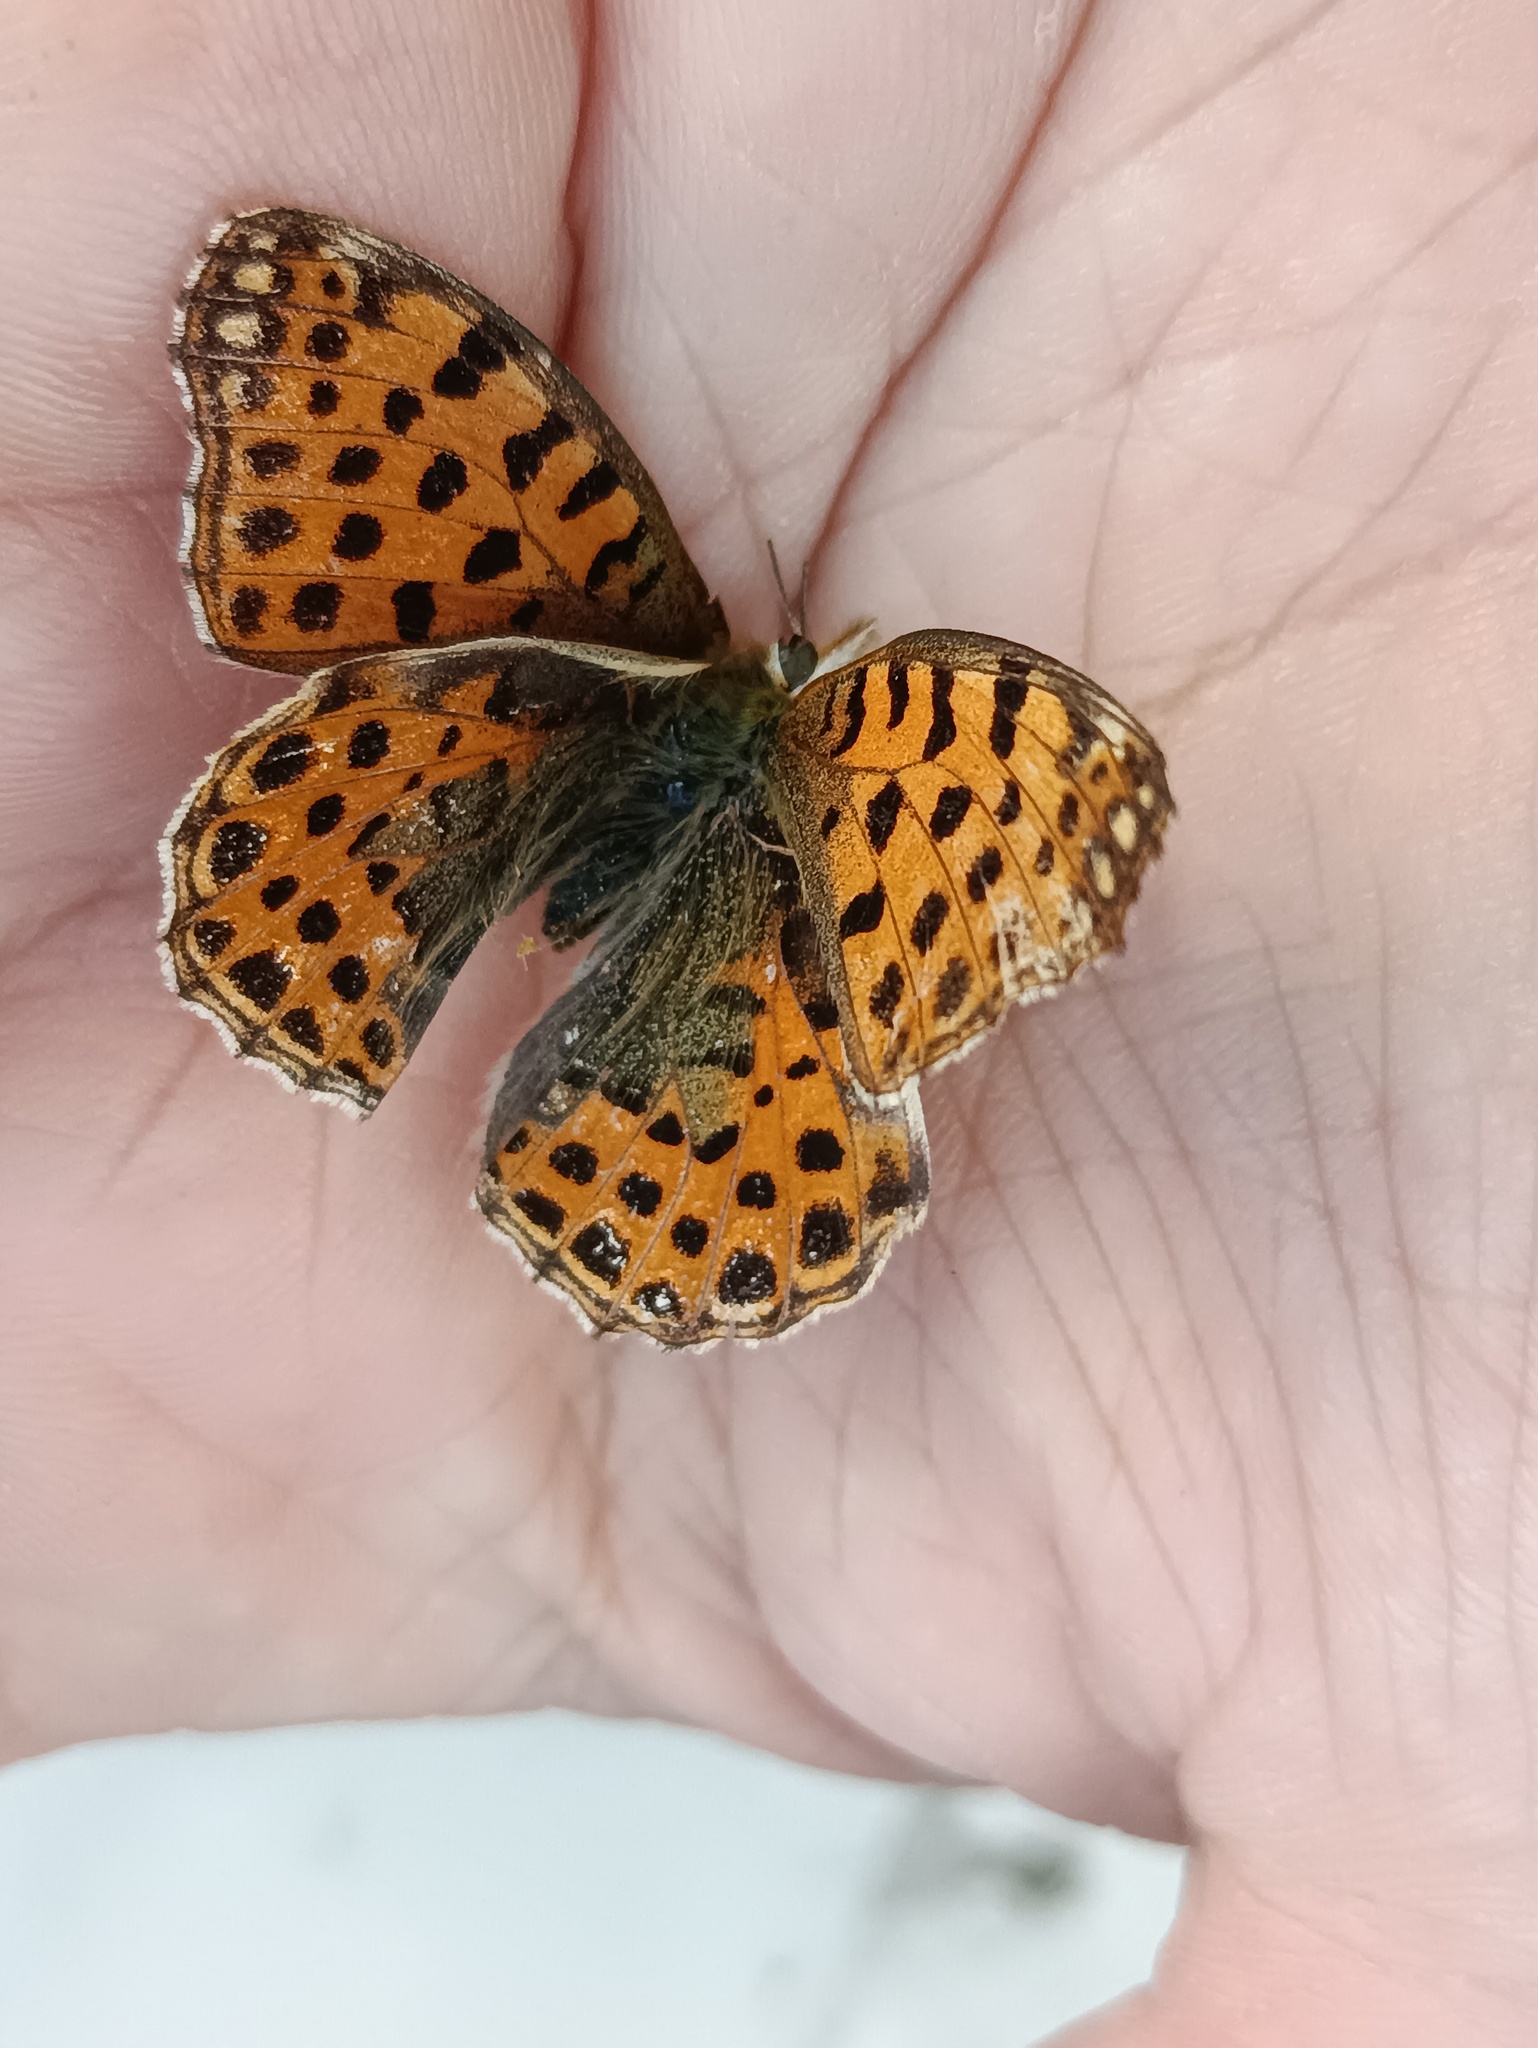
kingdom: Animalia
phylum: Arthropoda
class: Insecta
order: Lepidoptera
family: Nymphalidae
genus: Issoria
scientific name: Issoria lathonia
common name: Queen of spain fritillary
